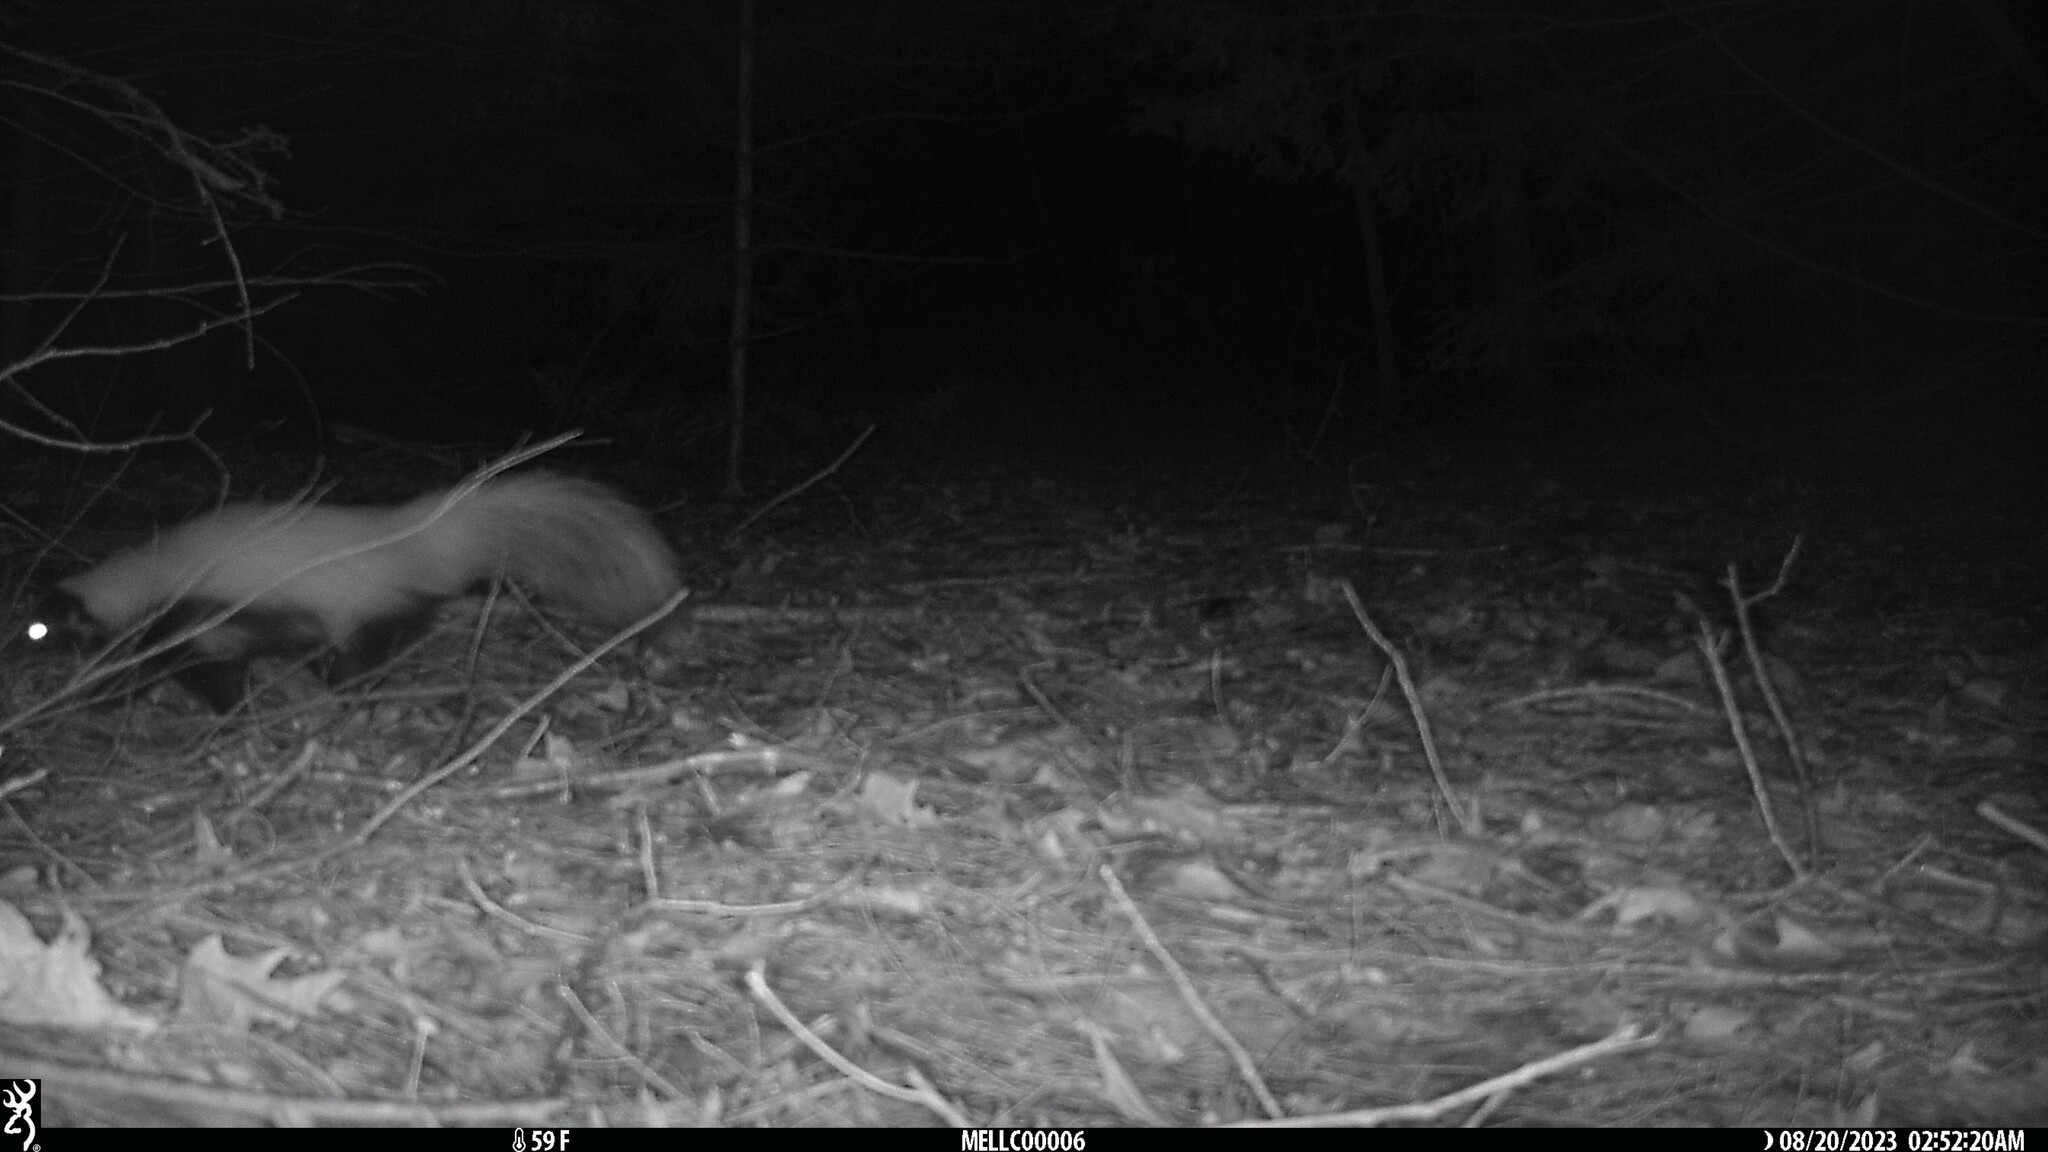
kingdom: Animalia
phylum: Chordata
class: Mammalia
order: Carnivora
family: Mephitidae
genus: Mephitis
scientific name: Mephitis mephitis
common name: Striped skunk
